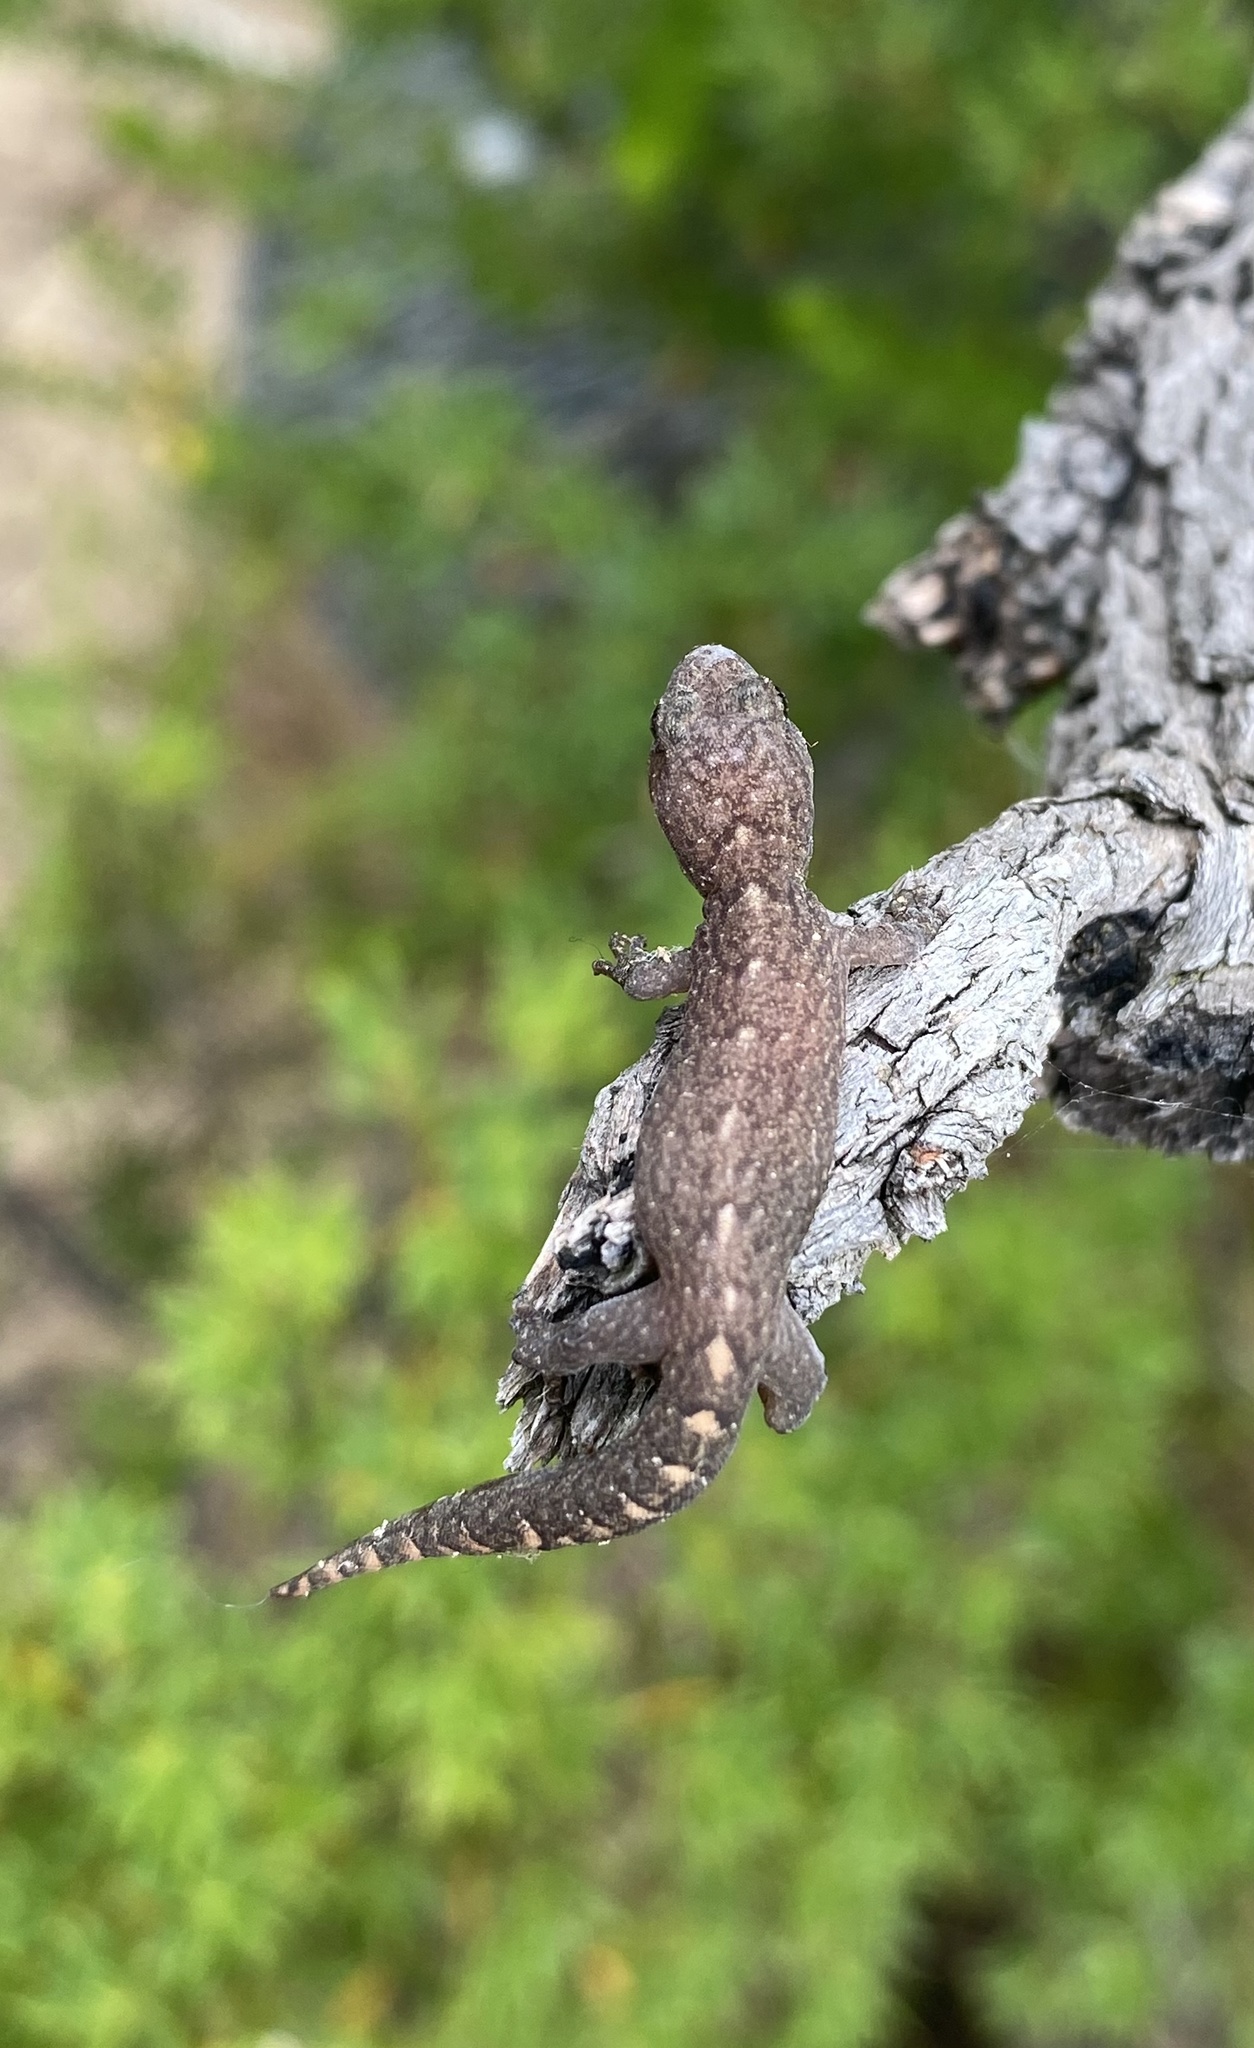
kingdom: Animalia
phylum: Chordata
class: Squamata
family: Gekkonidae
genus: Christinus
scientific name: Christinus marmoratus
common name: Marbled gecko
